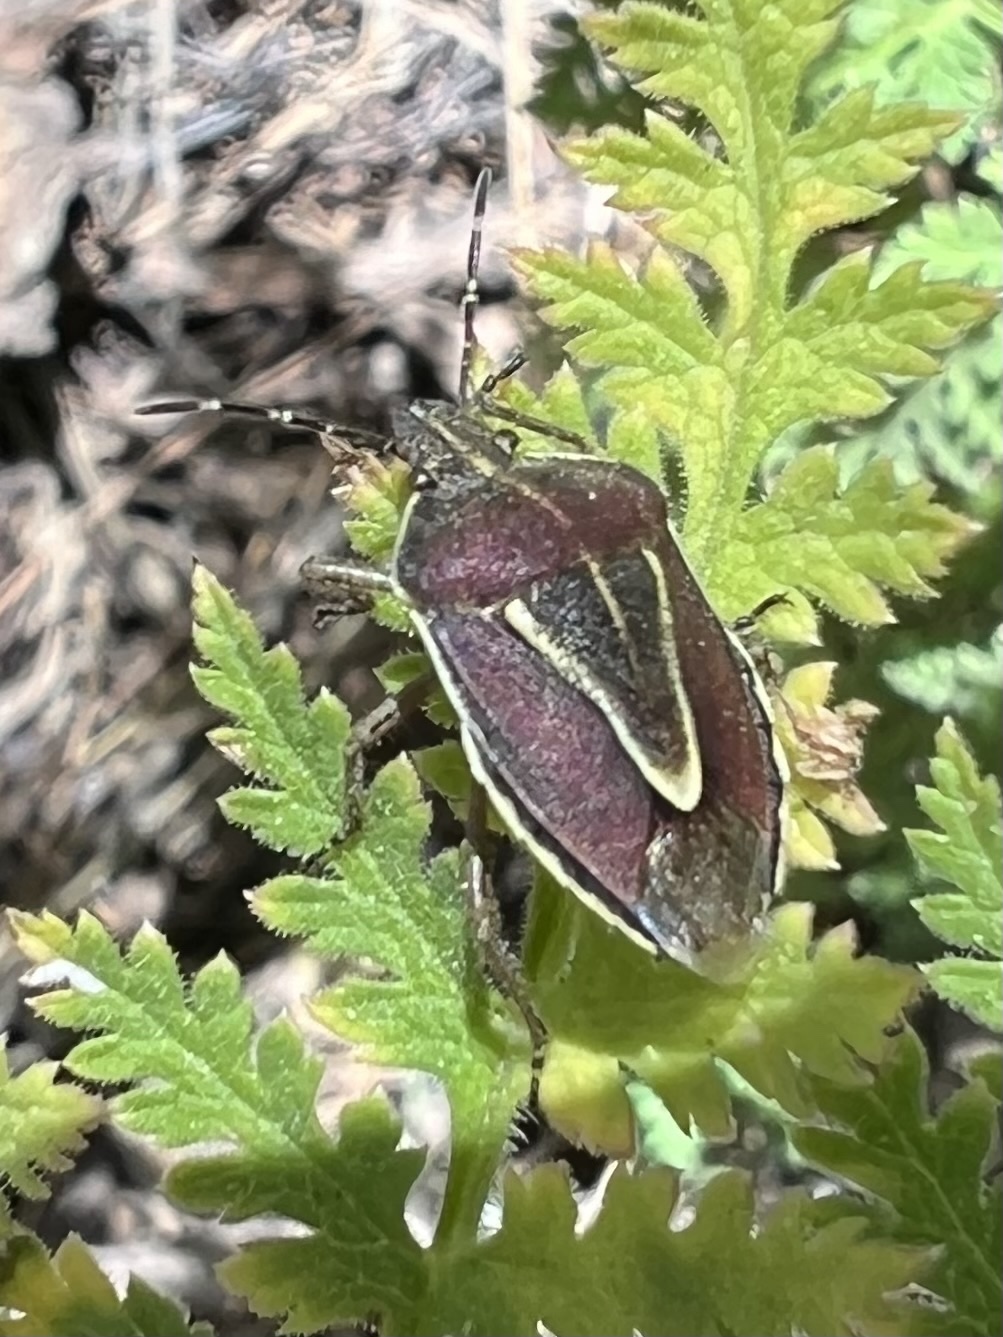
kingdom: Animalia
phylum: Arthropoda
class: Insecta
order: Hemiptera
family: Pentatomidae
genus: Eudolycoris
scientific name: Eudolycoris alluaudi
